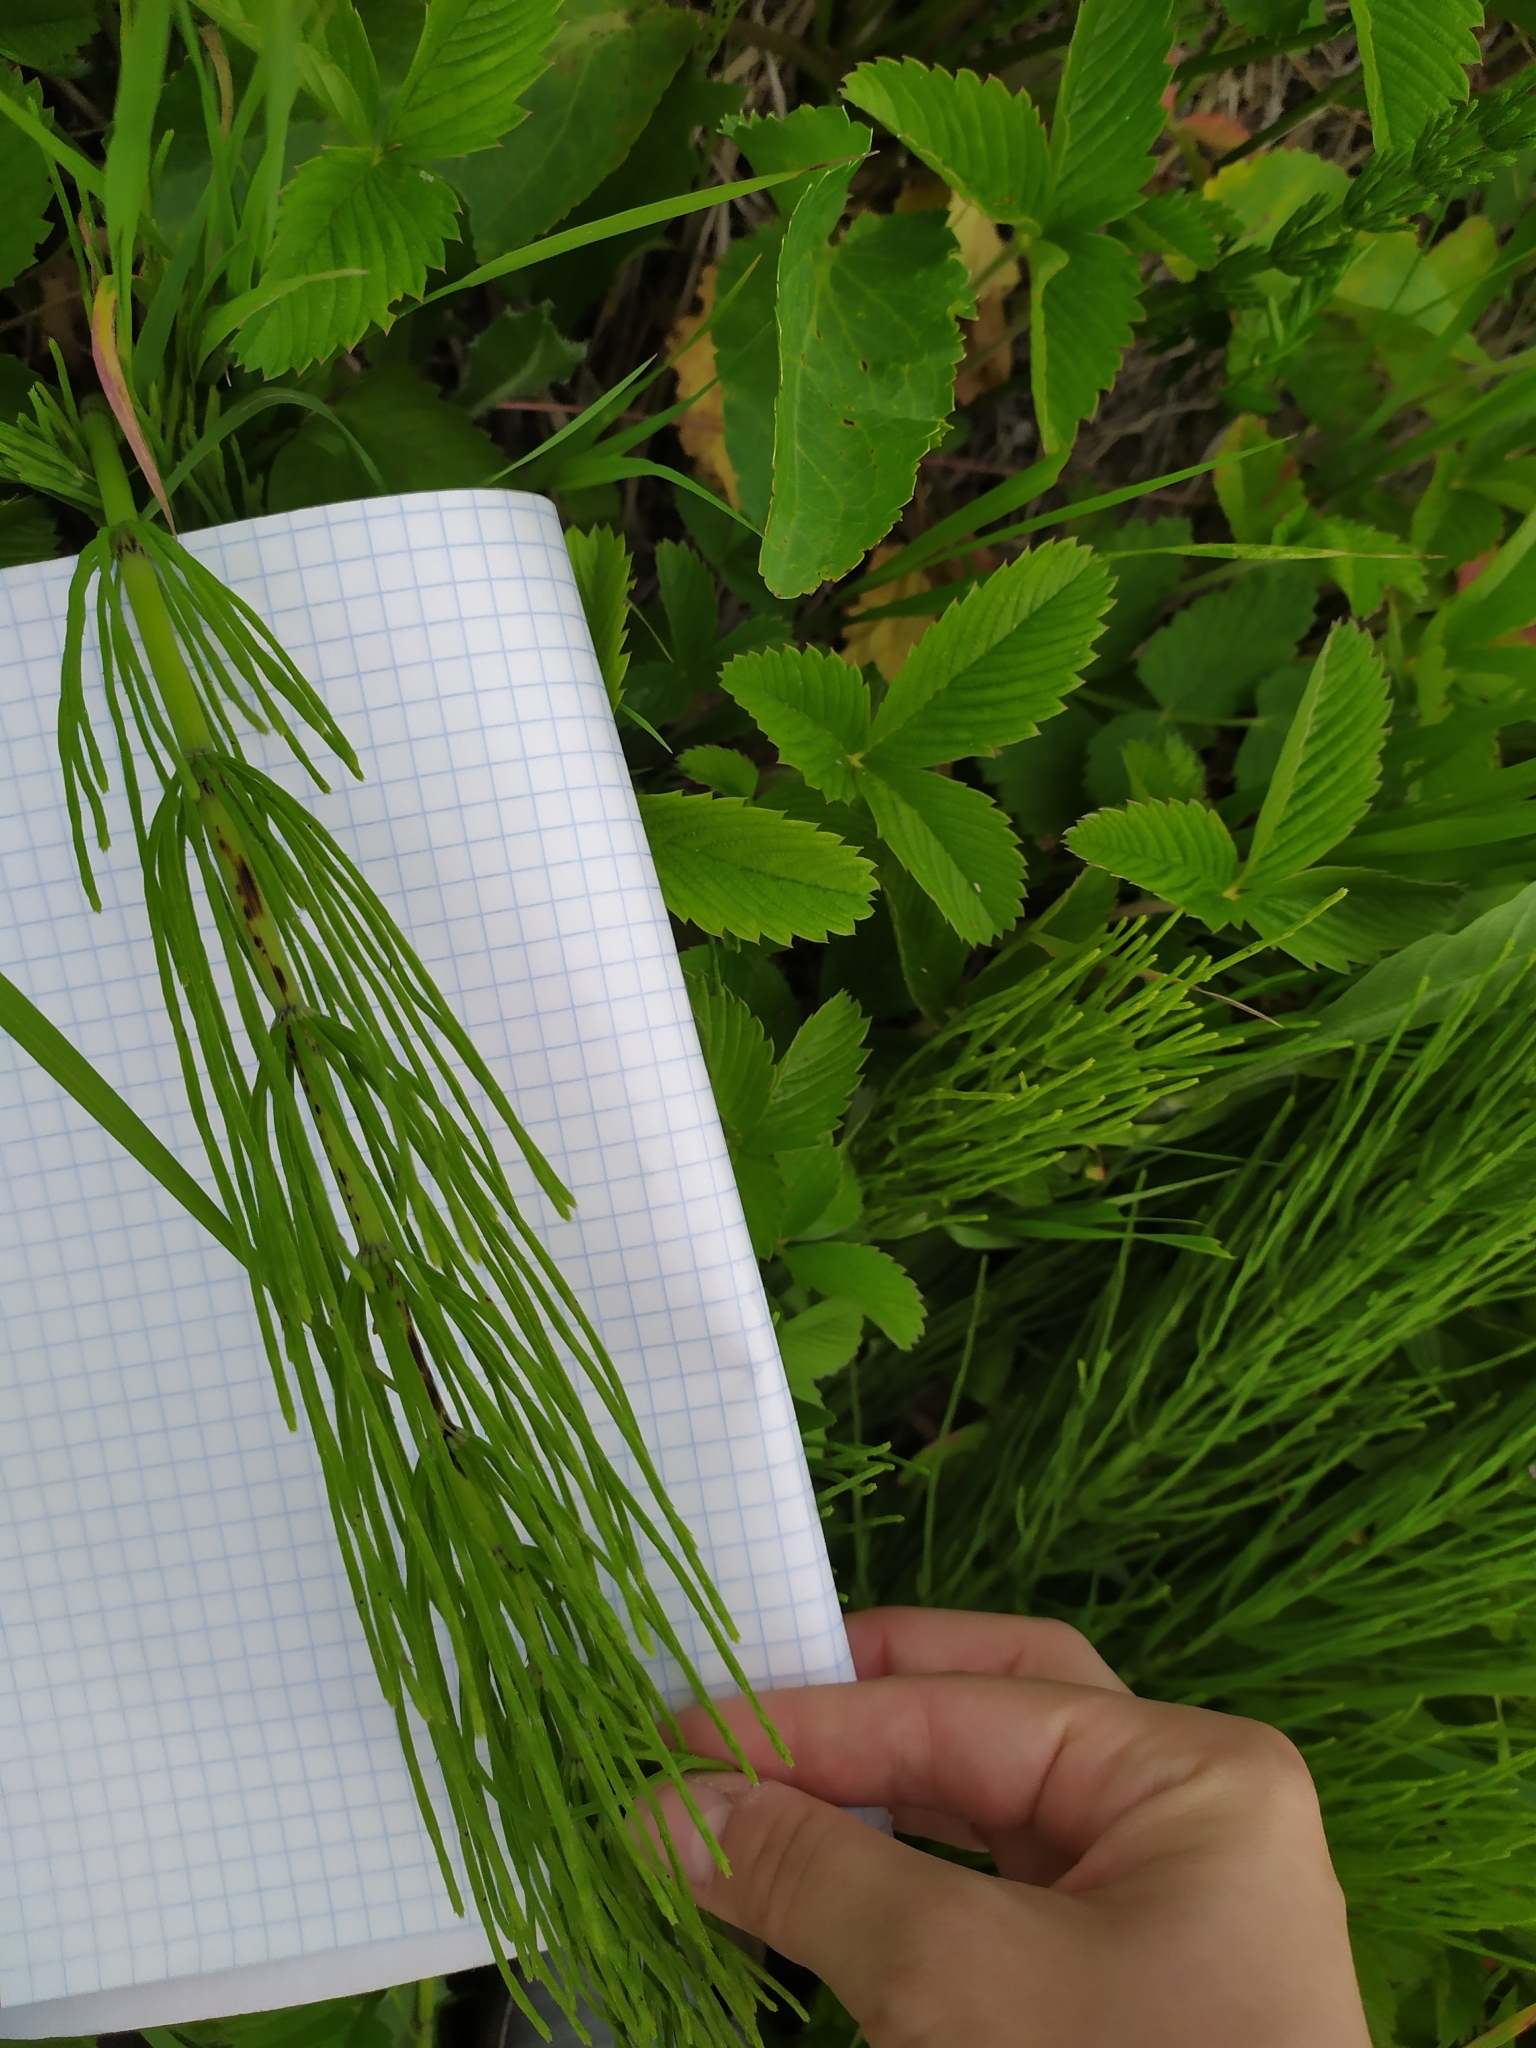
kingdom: Plantae
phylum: Tracheophyta
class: Polypodiopsida
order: Equisetales
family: Equisetaceae
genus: Equisetum
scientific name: Equisetum arvense
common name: Field horsetail
